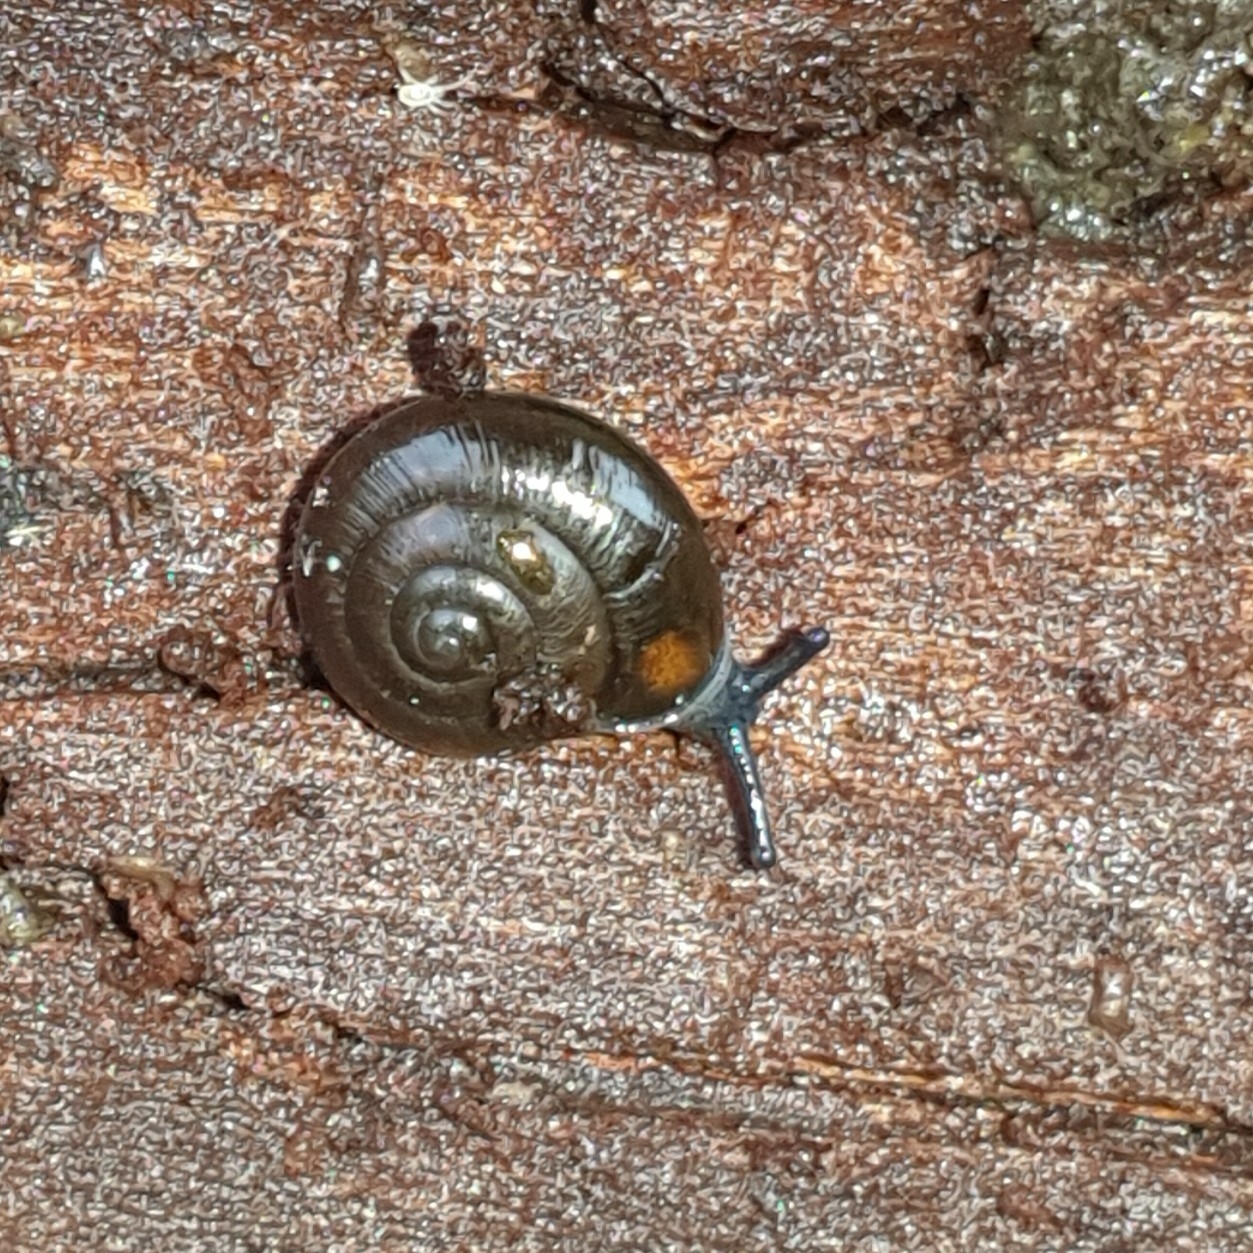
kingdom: Animalia
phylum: Mollusca
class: Gastropoda
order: Stylommatophora
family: Gastrodontidae
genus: Zonitoides
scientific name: Zonitoides nitidus
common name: Shiny glass snail
